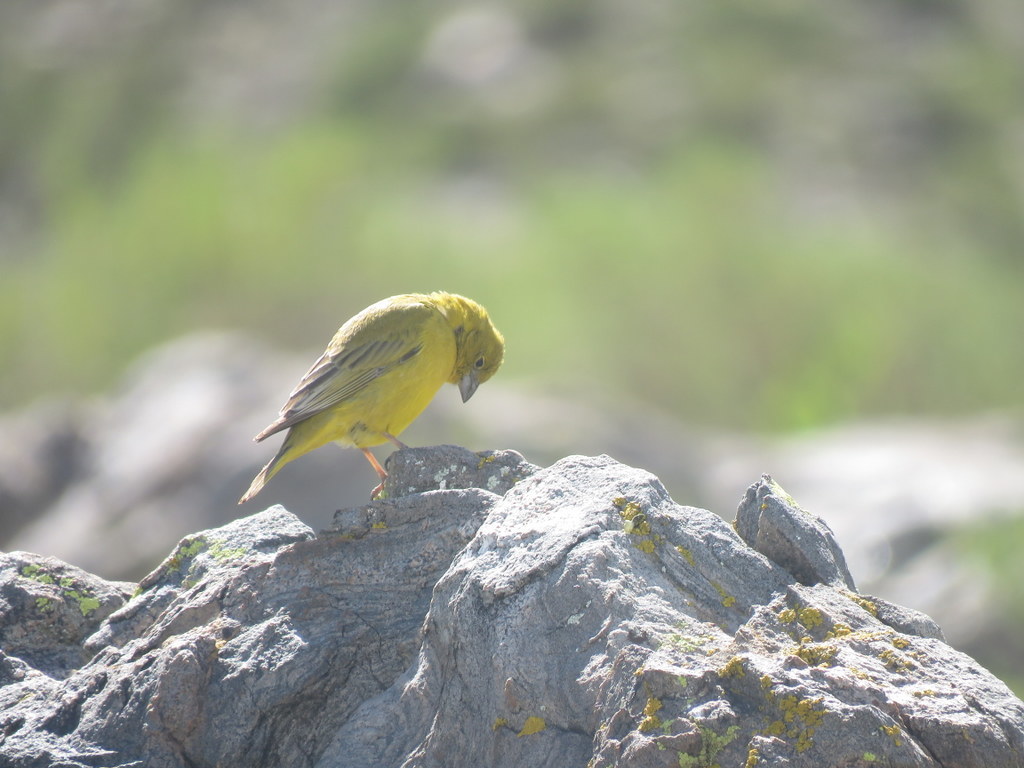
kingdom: Animalia
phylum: Chordata
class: Aves
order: Passeriformes
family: Thraupidae
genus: Sicalis
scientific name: Sicalis olivascens
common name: Greenish yellow finch
